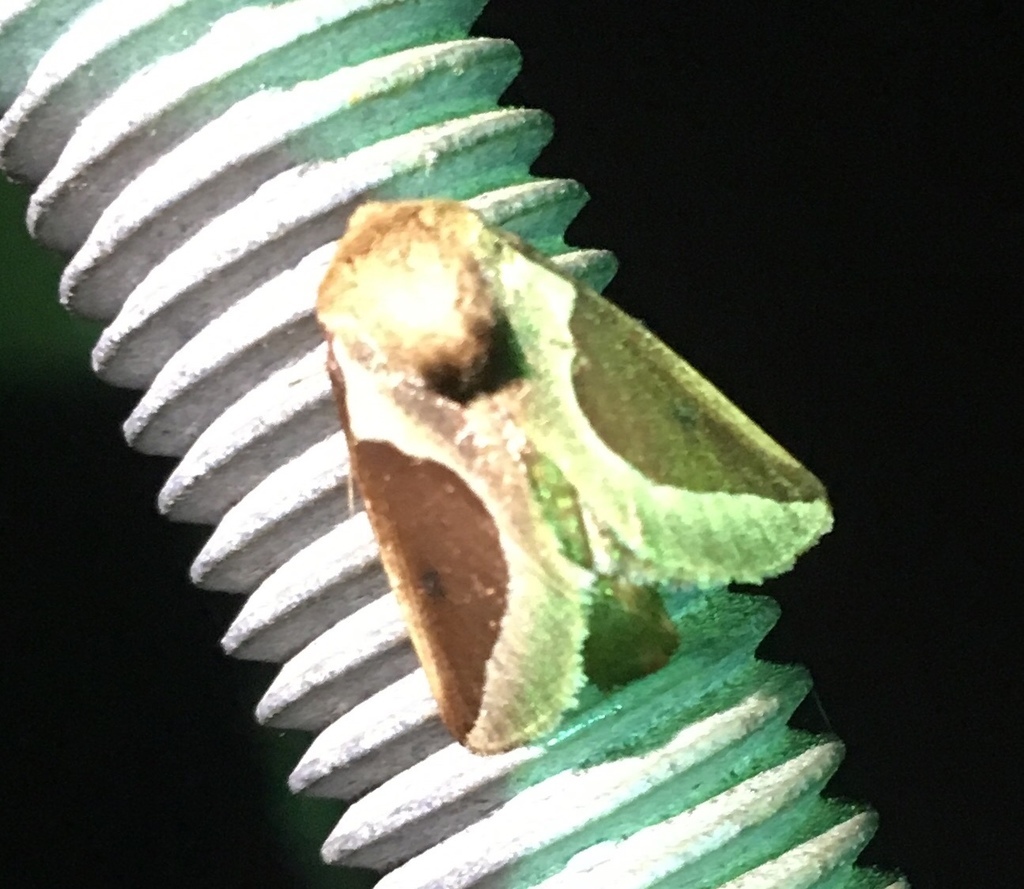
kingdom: Animalia
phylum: Arthropoda
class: Insecta
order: Lepidoptera
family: Limacodidae
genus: Prolimacodes
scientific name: Prolimacodes badia
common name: Skiff moth
